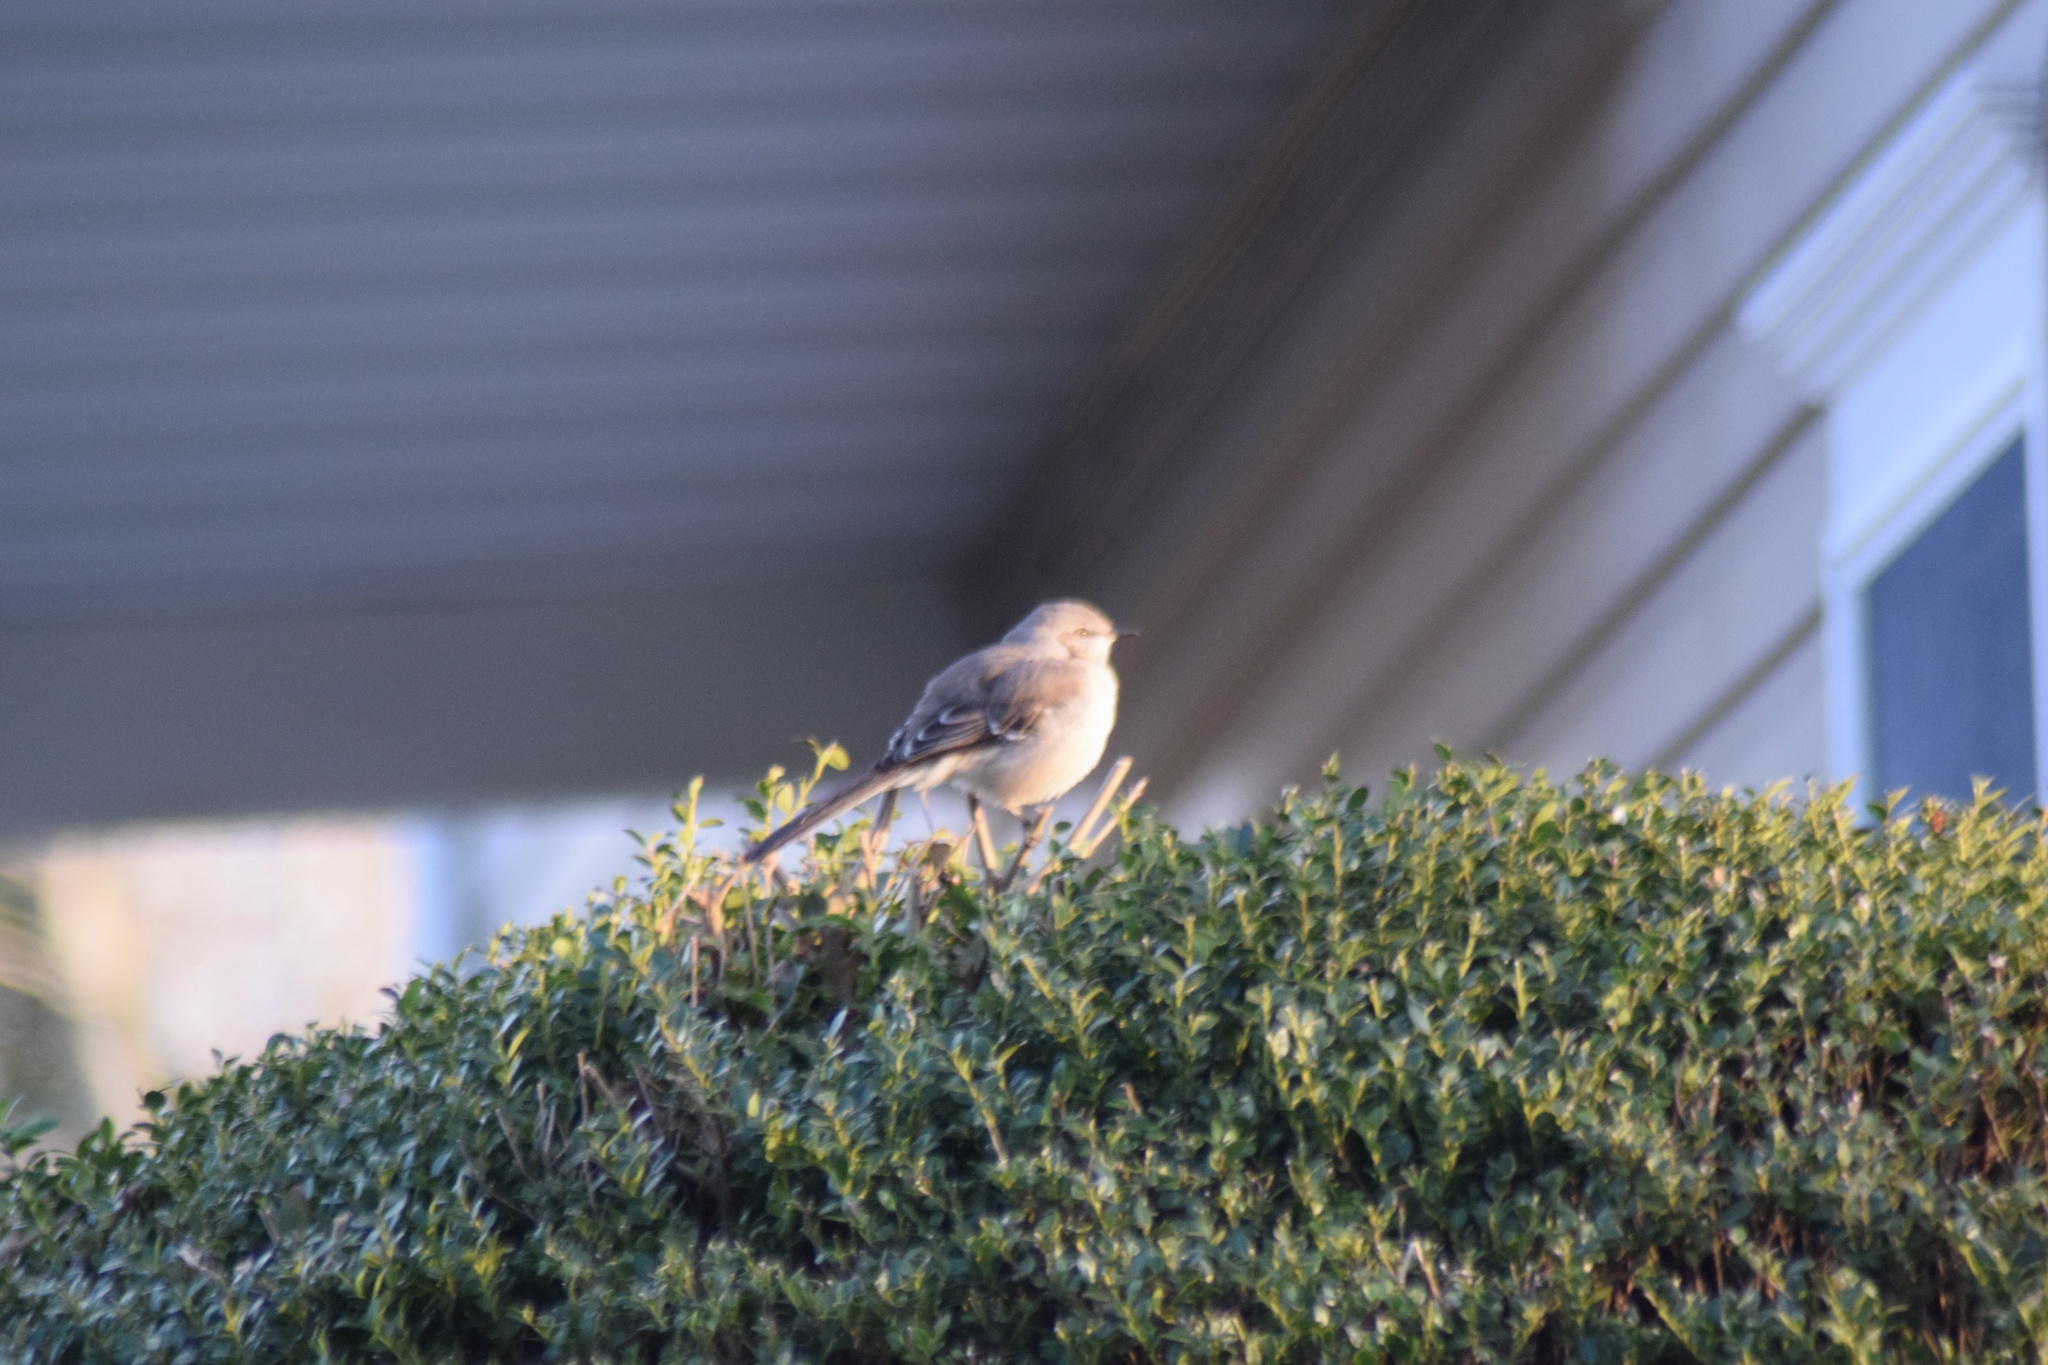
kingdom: Animalia
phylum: Chordata
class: Aves
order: Passeriformes
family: Mimidae
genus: Mimus
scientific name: Mimus polyglottos
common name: Northern mockingbird
